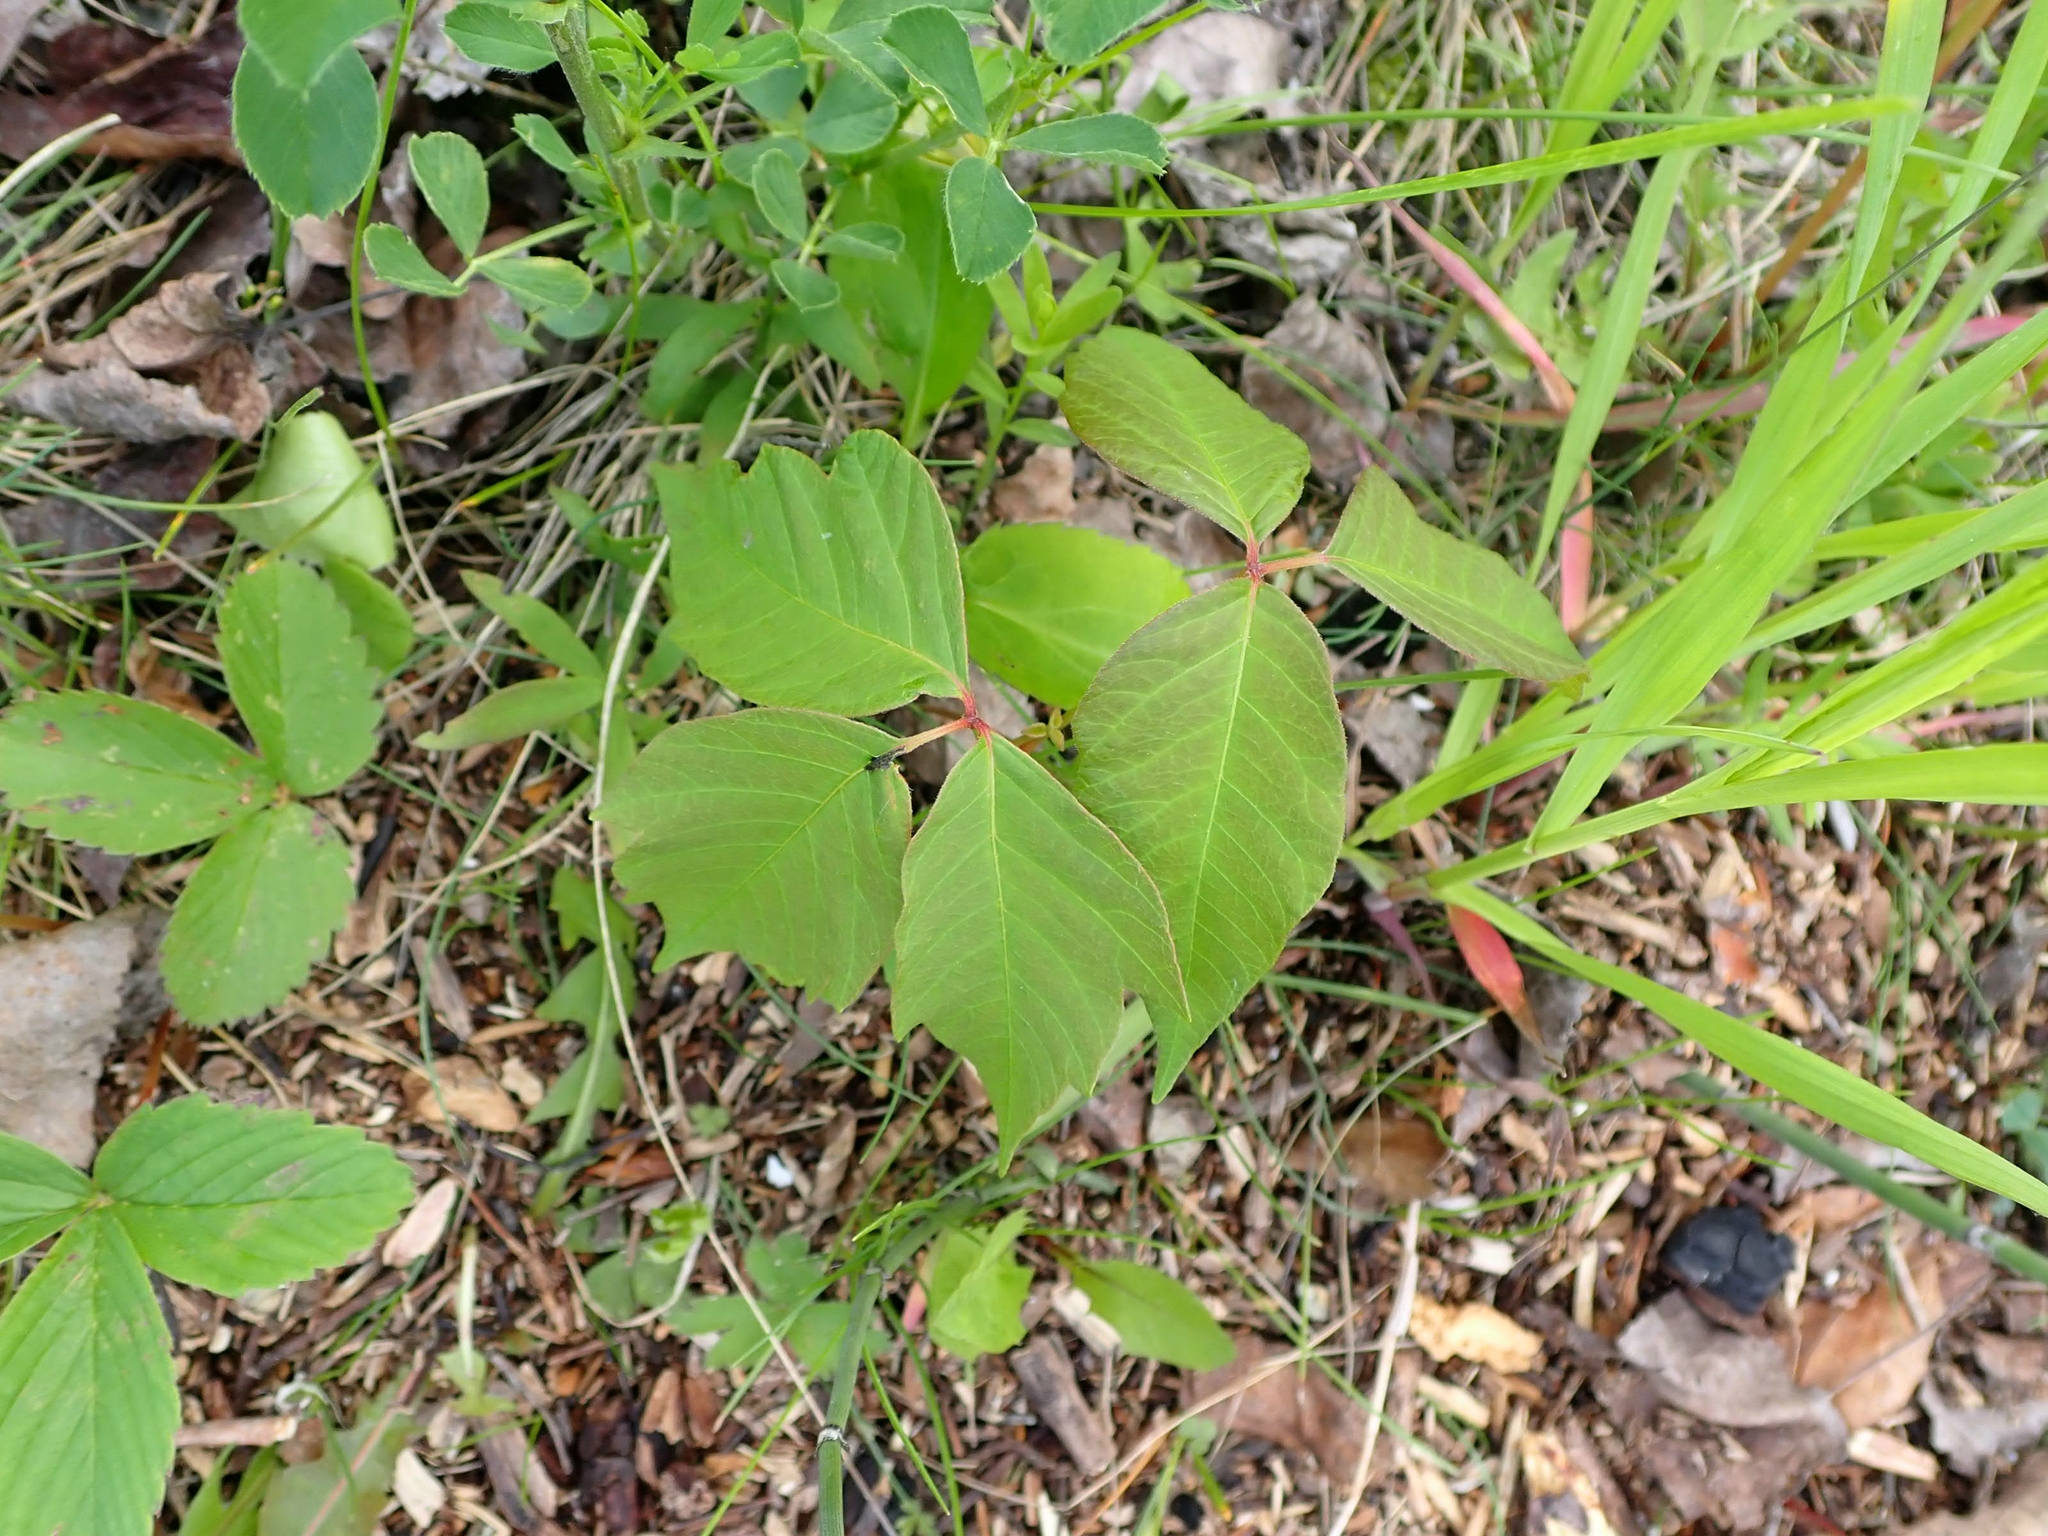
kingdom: Plantae
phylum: Tracheophyta
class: Magnoliopsida
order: Sapindales
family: Anacardiaceae
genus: Toxicodendron
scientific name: Toxicodendron rydbergii
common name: Rydberg's poison-ivy
